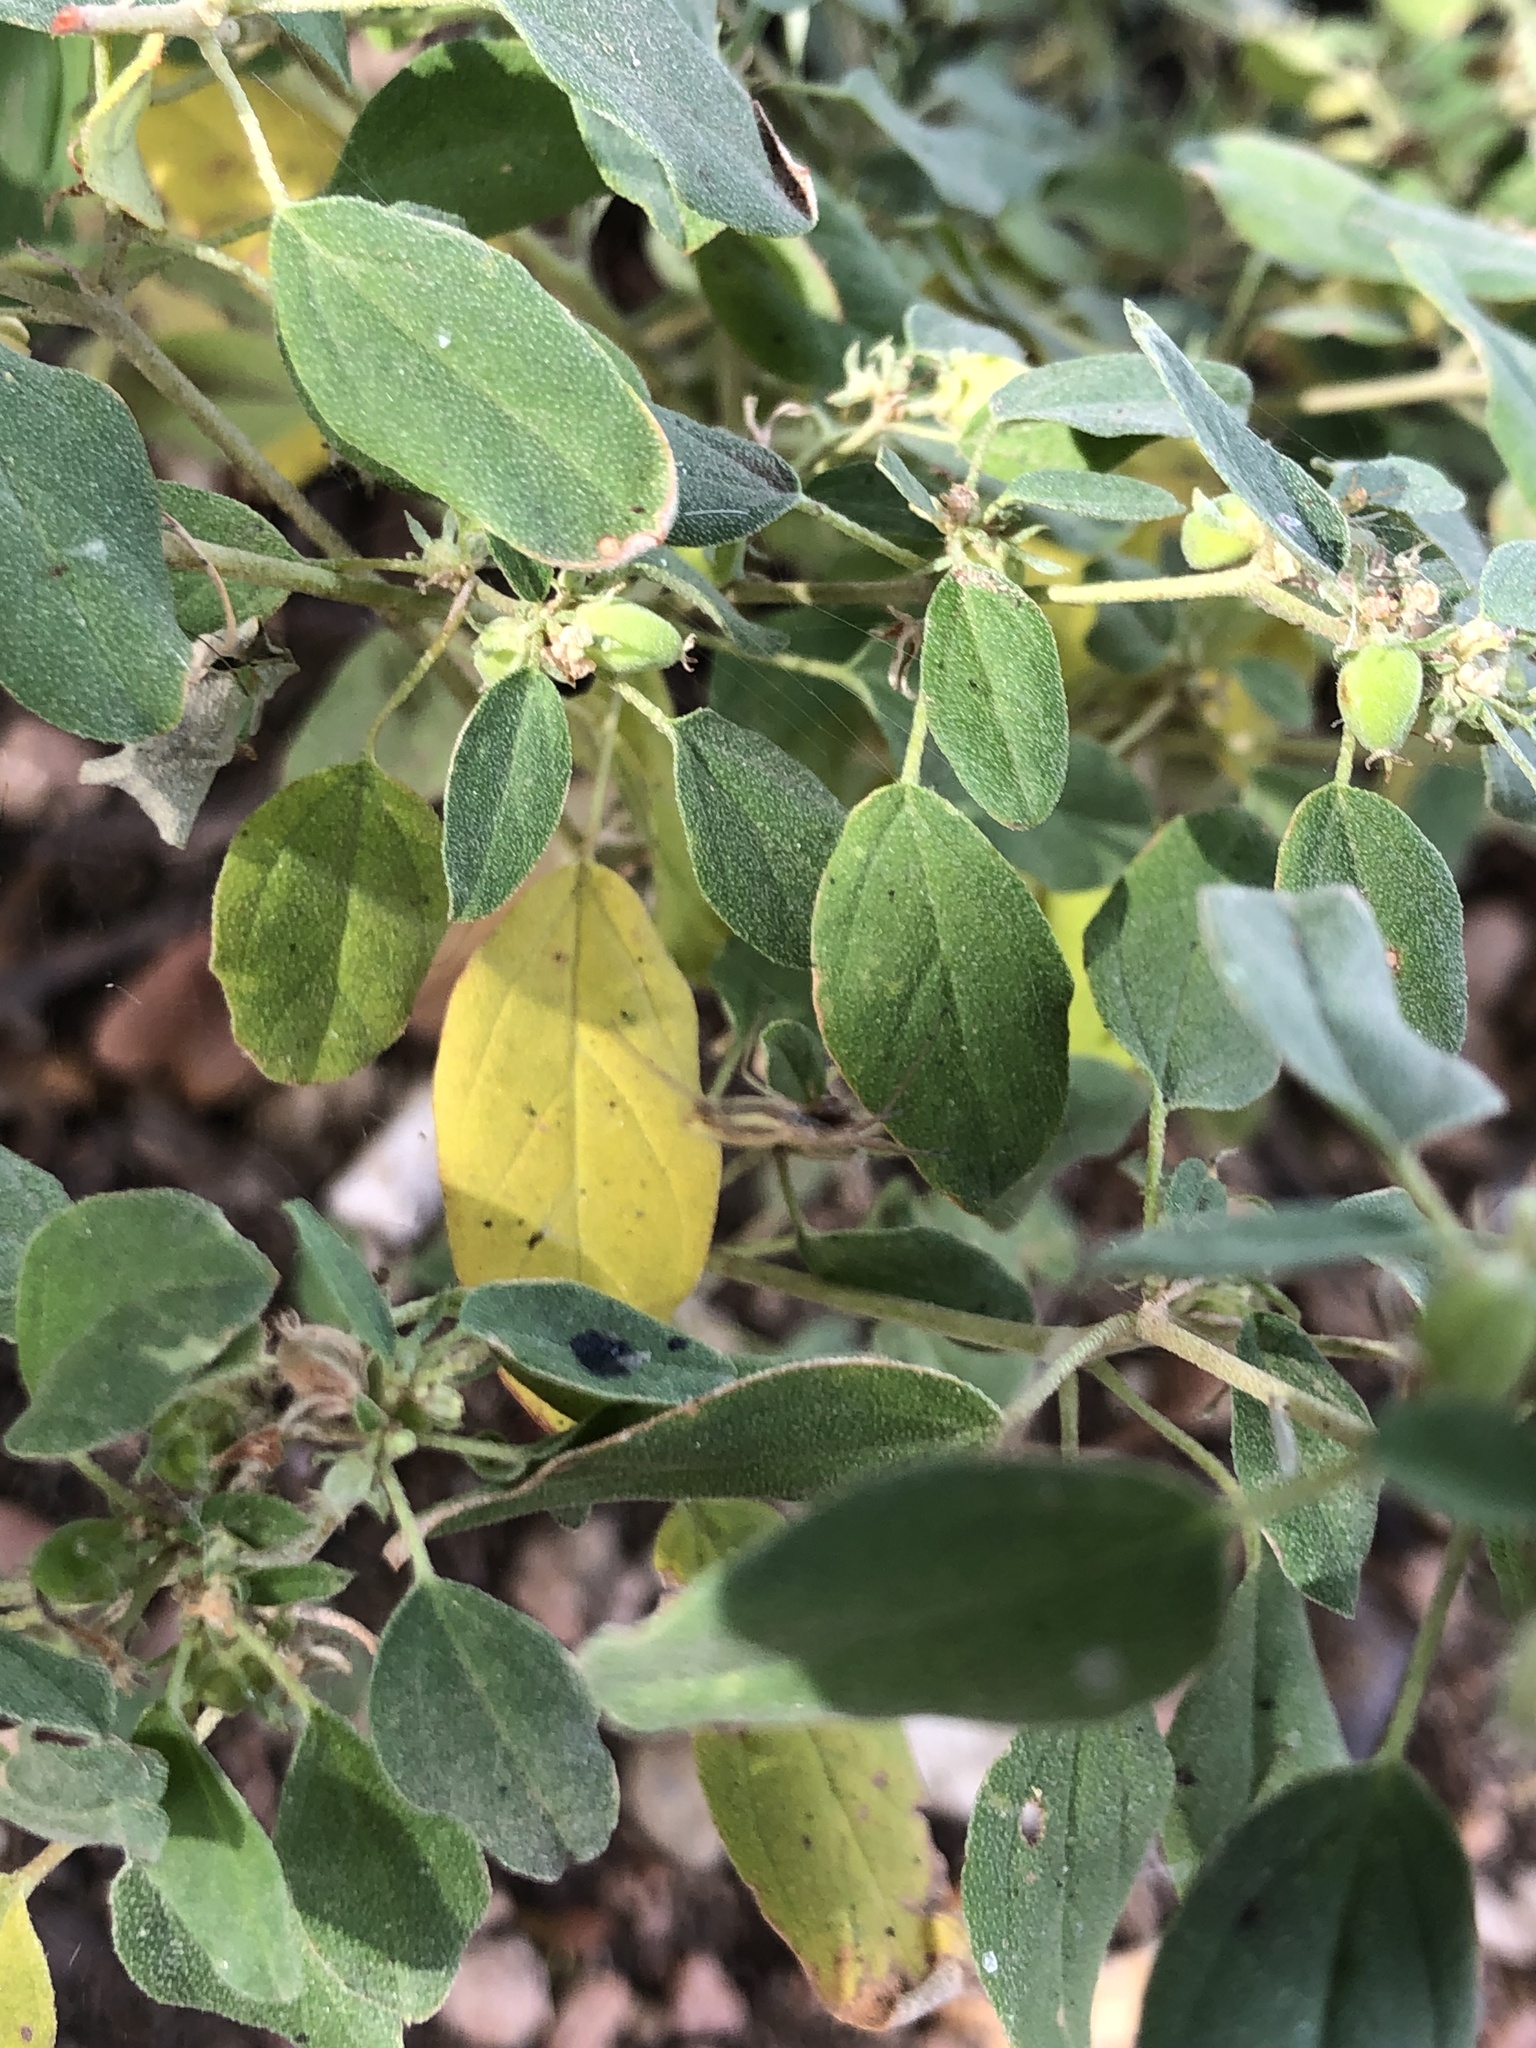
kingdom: Plantae
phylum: Tracheophyta
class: Magnoliopsida
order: Malpighiales
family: Euphorbiaceae
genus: Croton
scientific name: Croton monanthogynus
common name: One-seed croton
